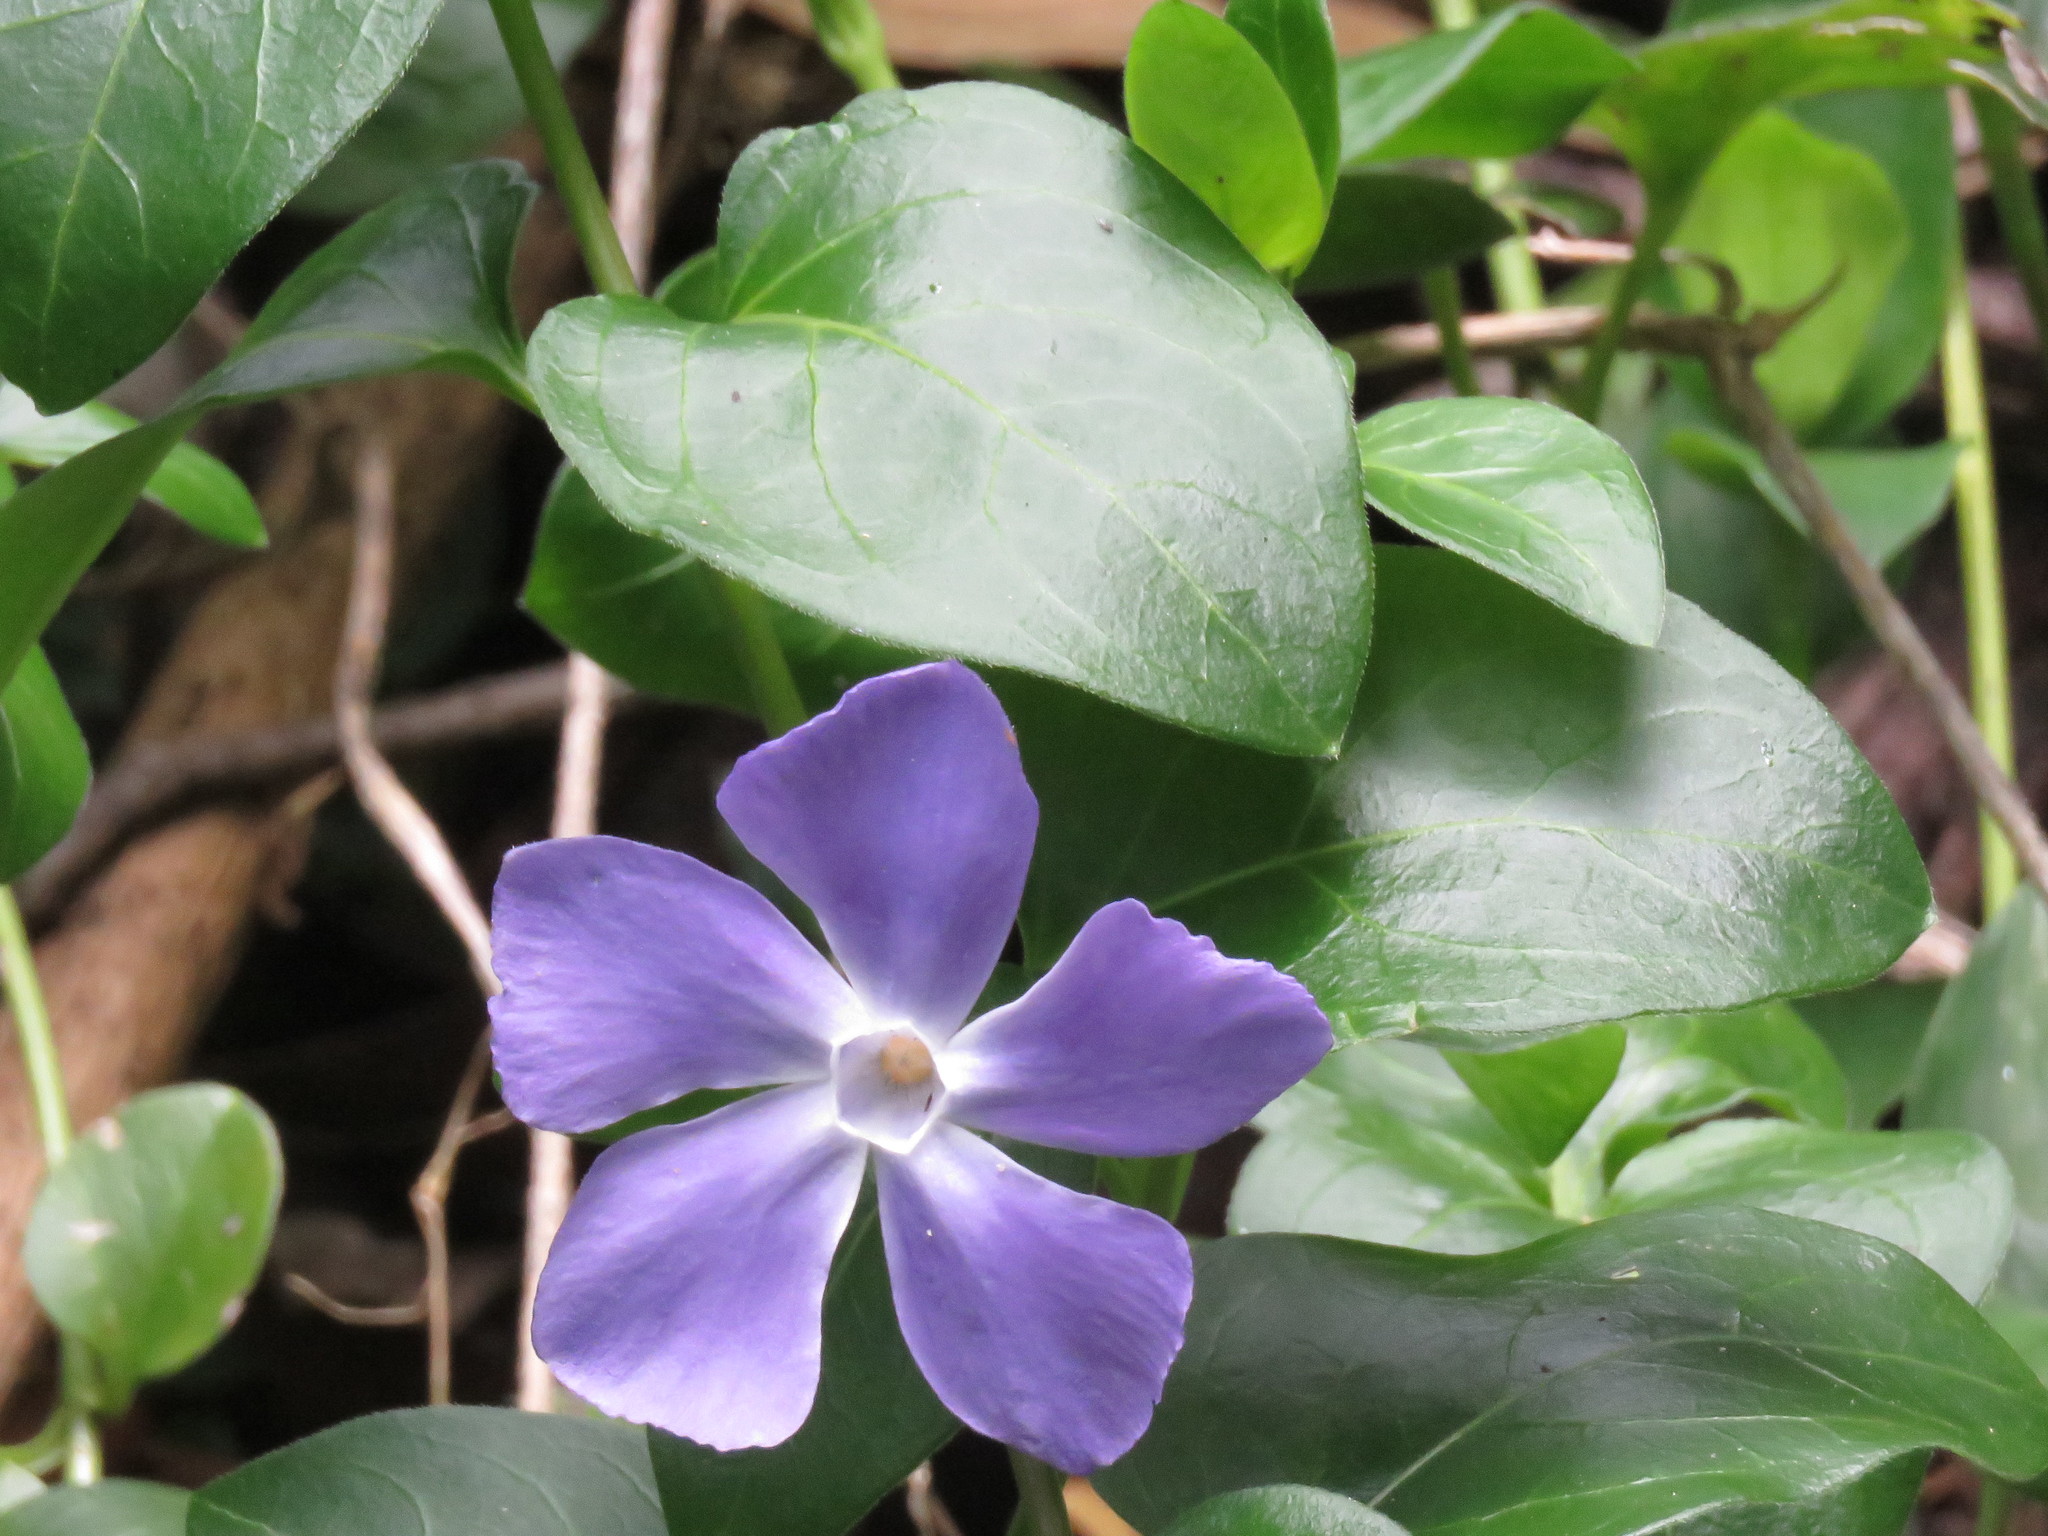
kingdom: Plantae
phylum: Tracheophyta
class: Magnoliopsida
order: Gentianales
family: Apocynaceae
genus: Vinca
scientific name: Vinca major
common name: Greater periwinkle
